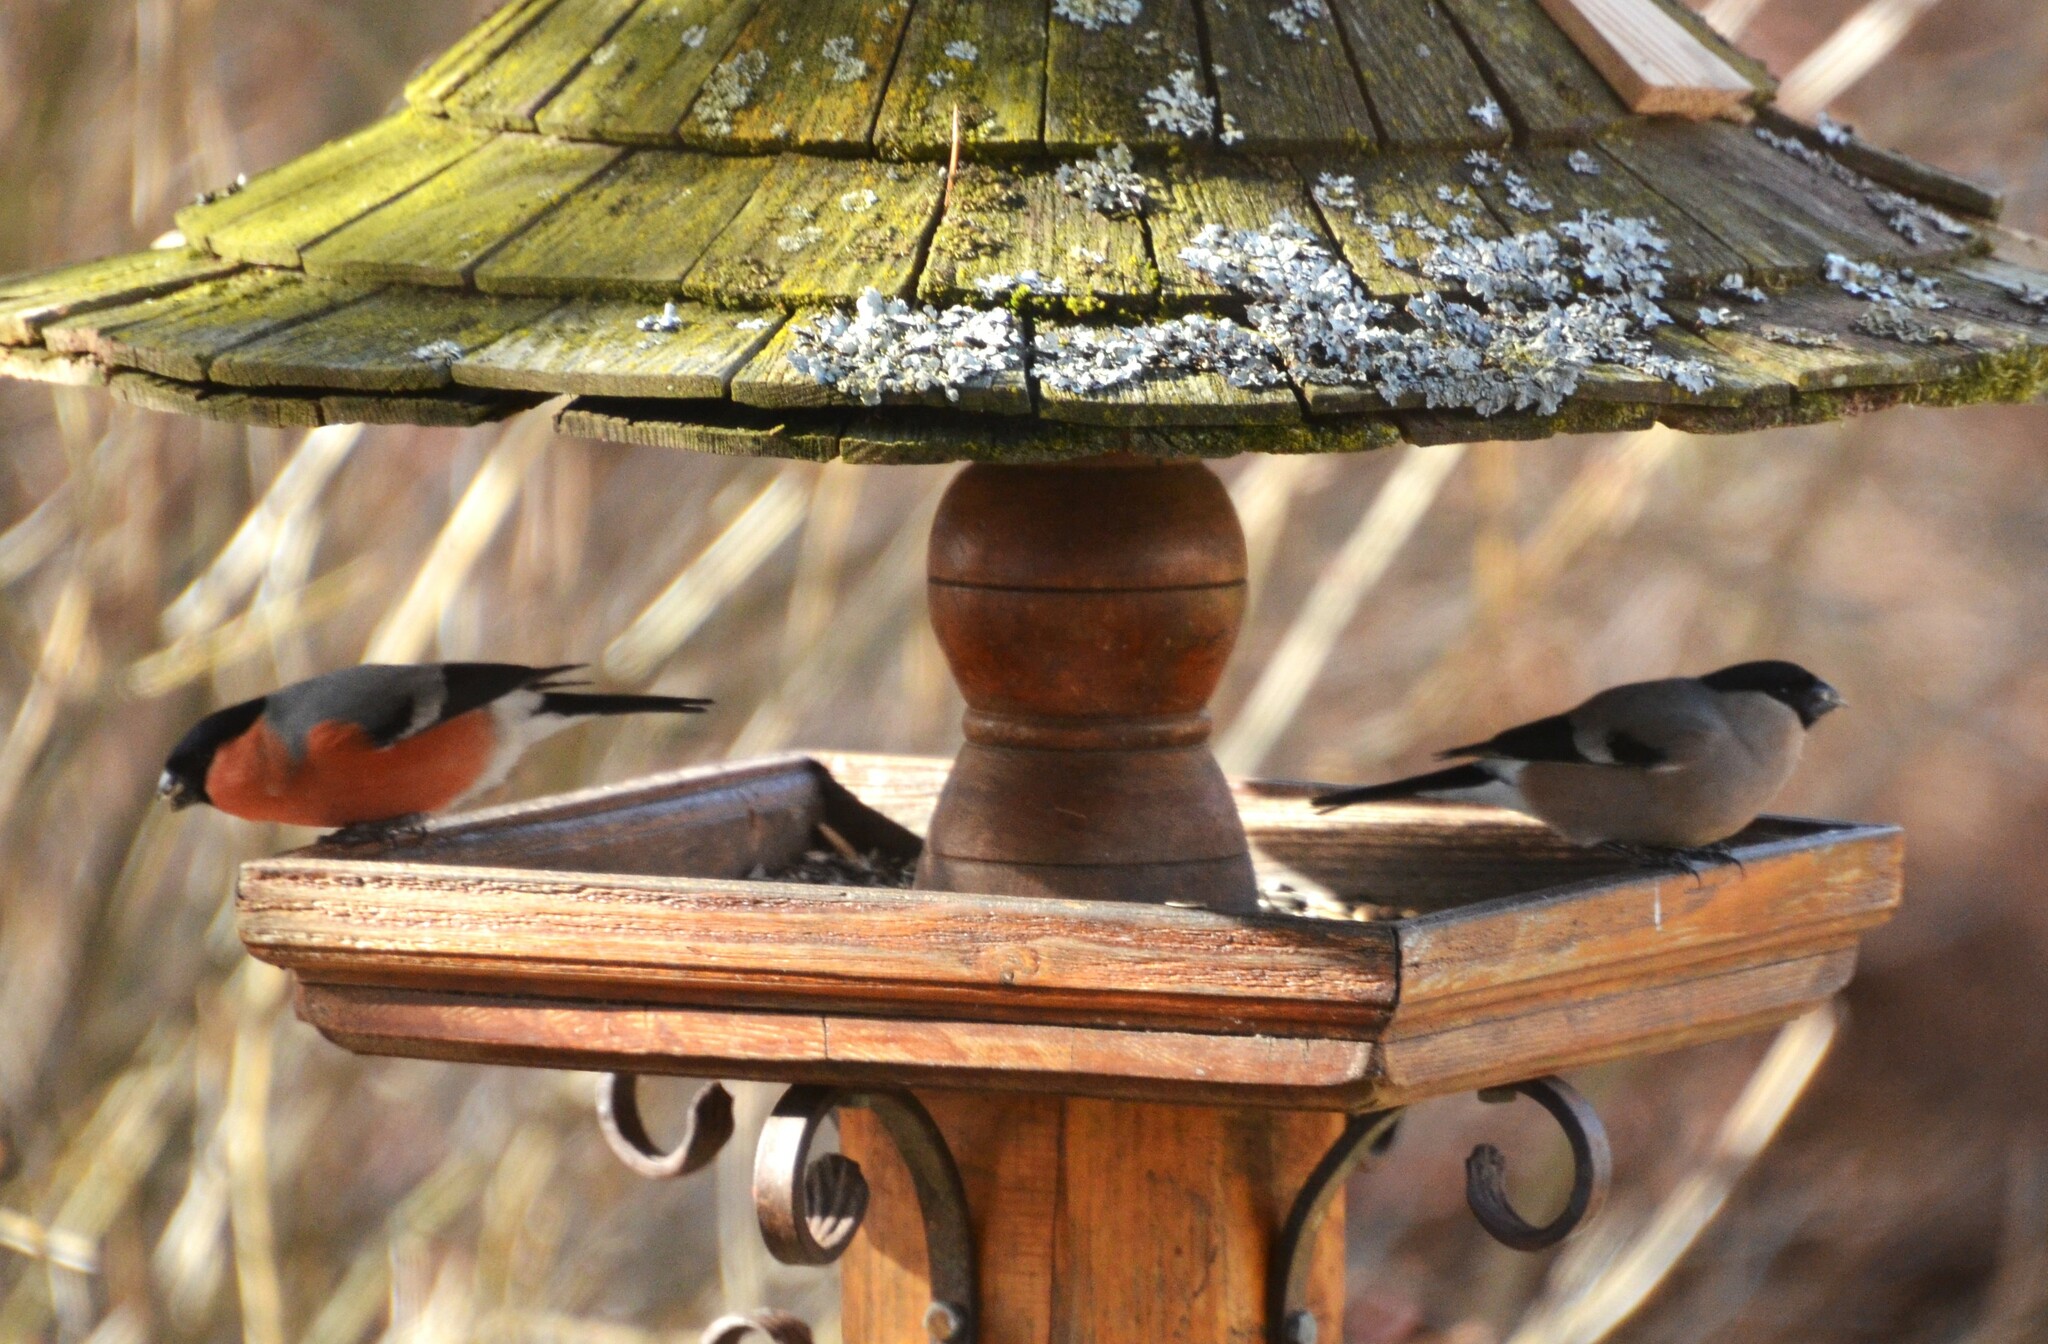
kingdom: Animalia
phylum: Chordata
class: Aves
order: Passeriformes
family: Fringillidae
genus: Pyrrhula
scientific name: Pyrrhula pyrrhula
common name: Eurasian bullfinch
